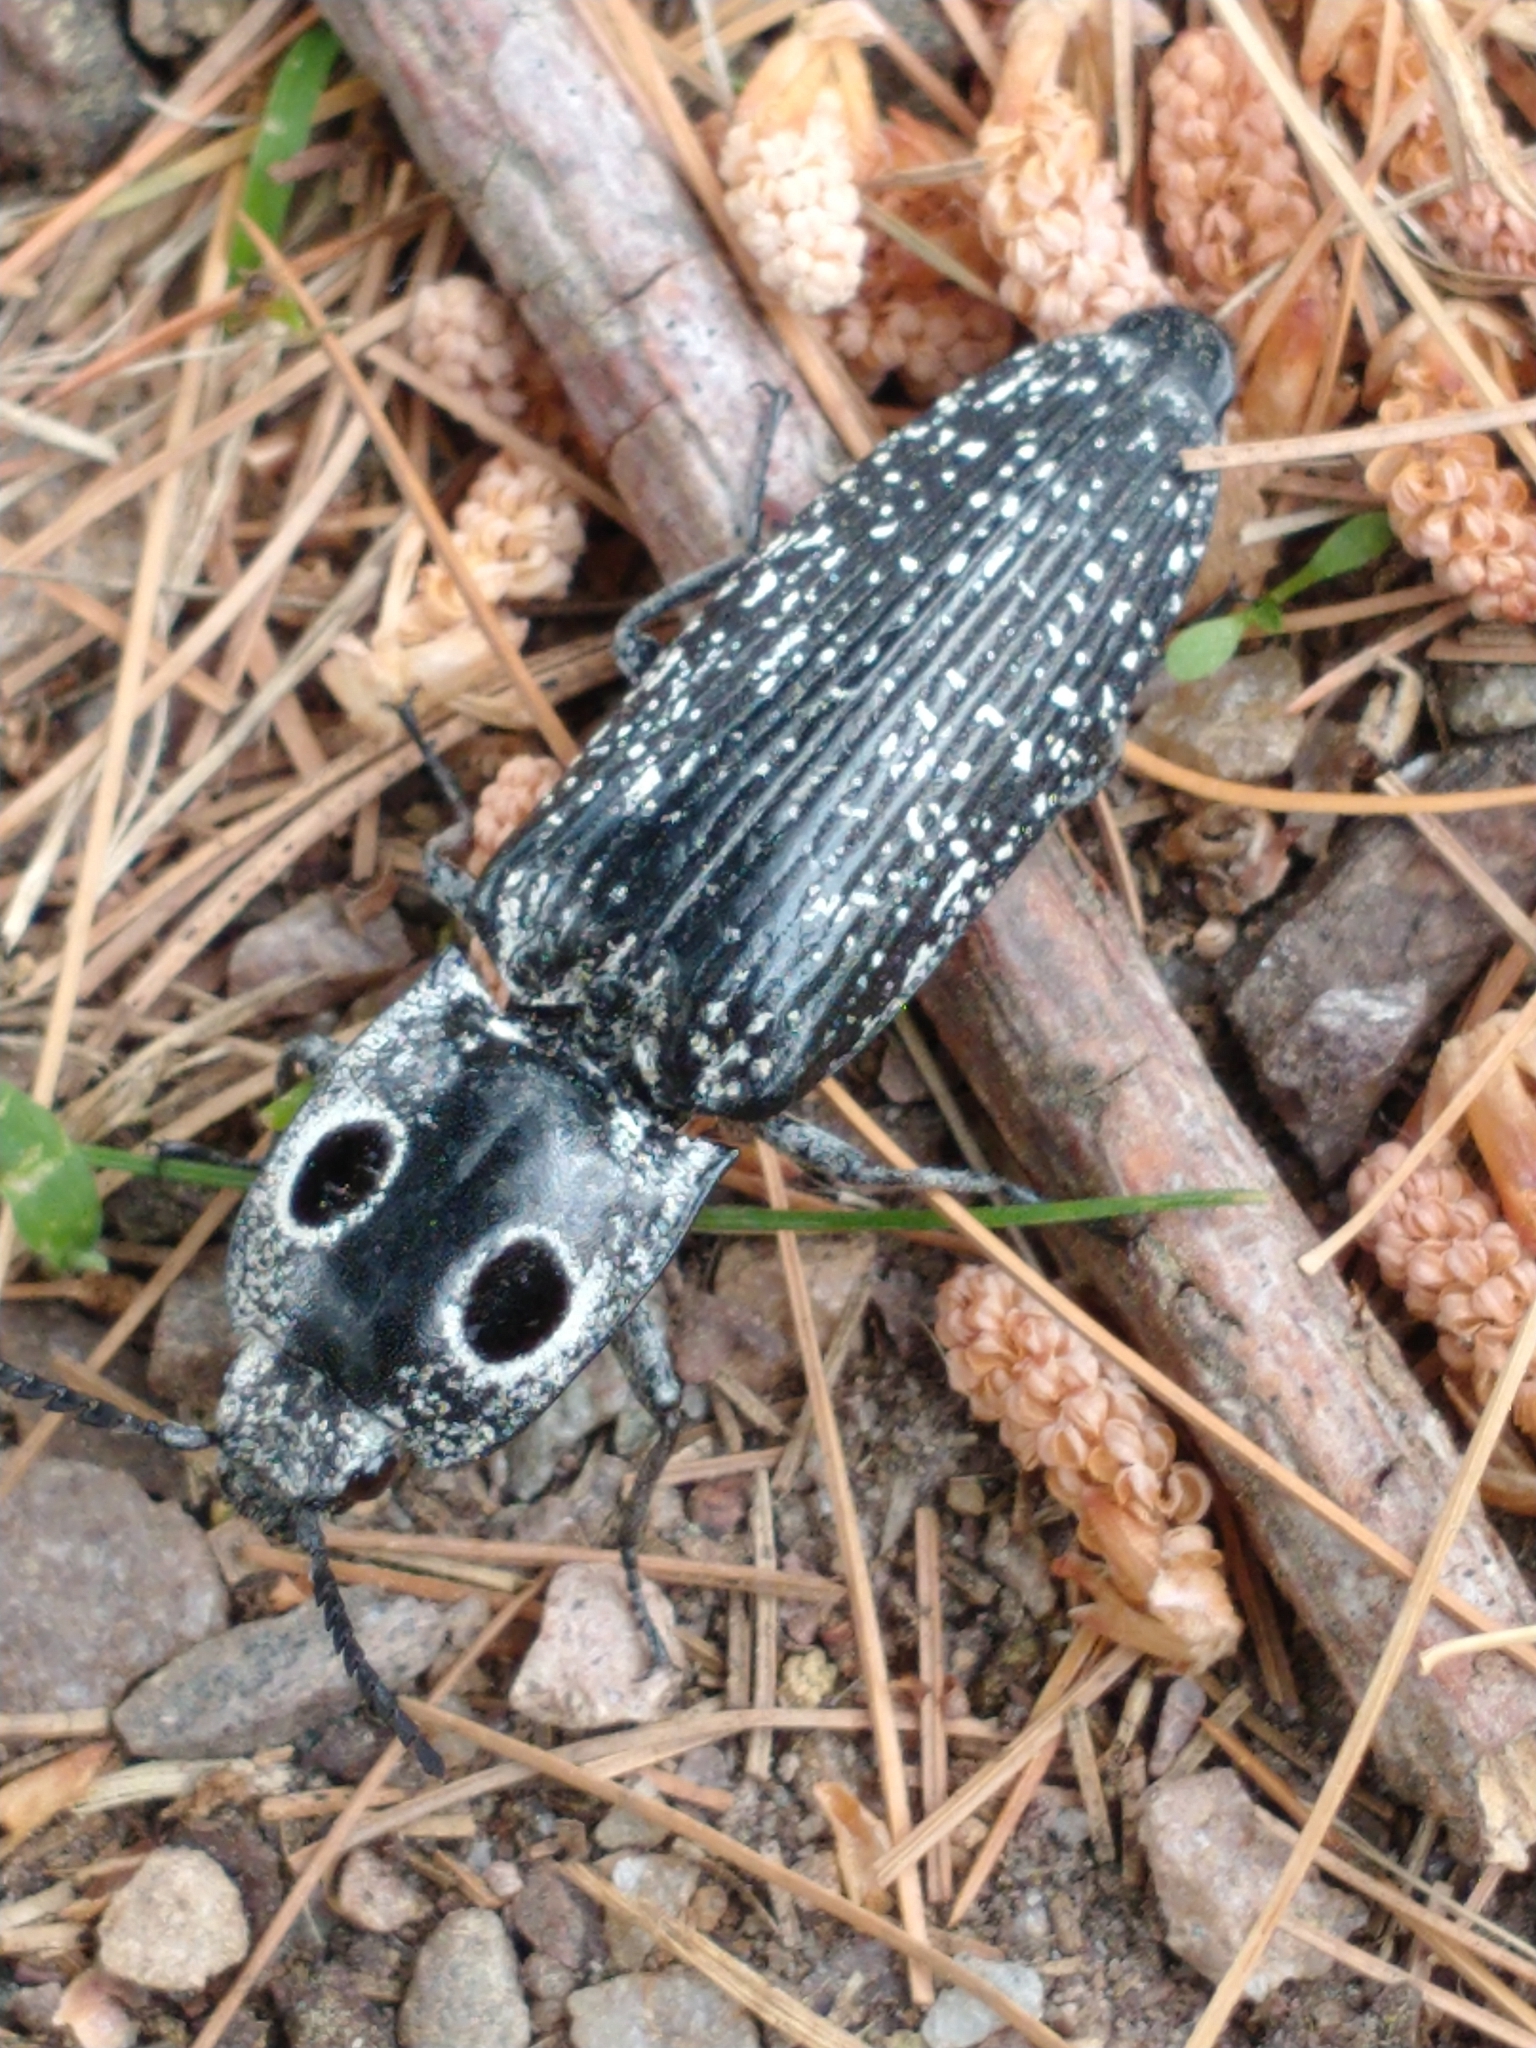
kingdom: Animalia
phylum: Arthropoda
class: Insecta
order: Coleoptera
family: Elateridae
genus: Alaus
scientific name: Alaus oculatus
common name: Eastern eyed click beetle
